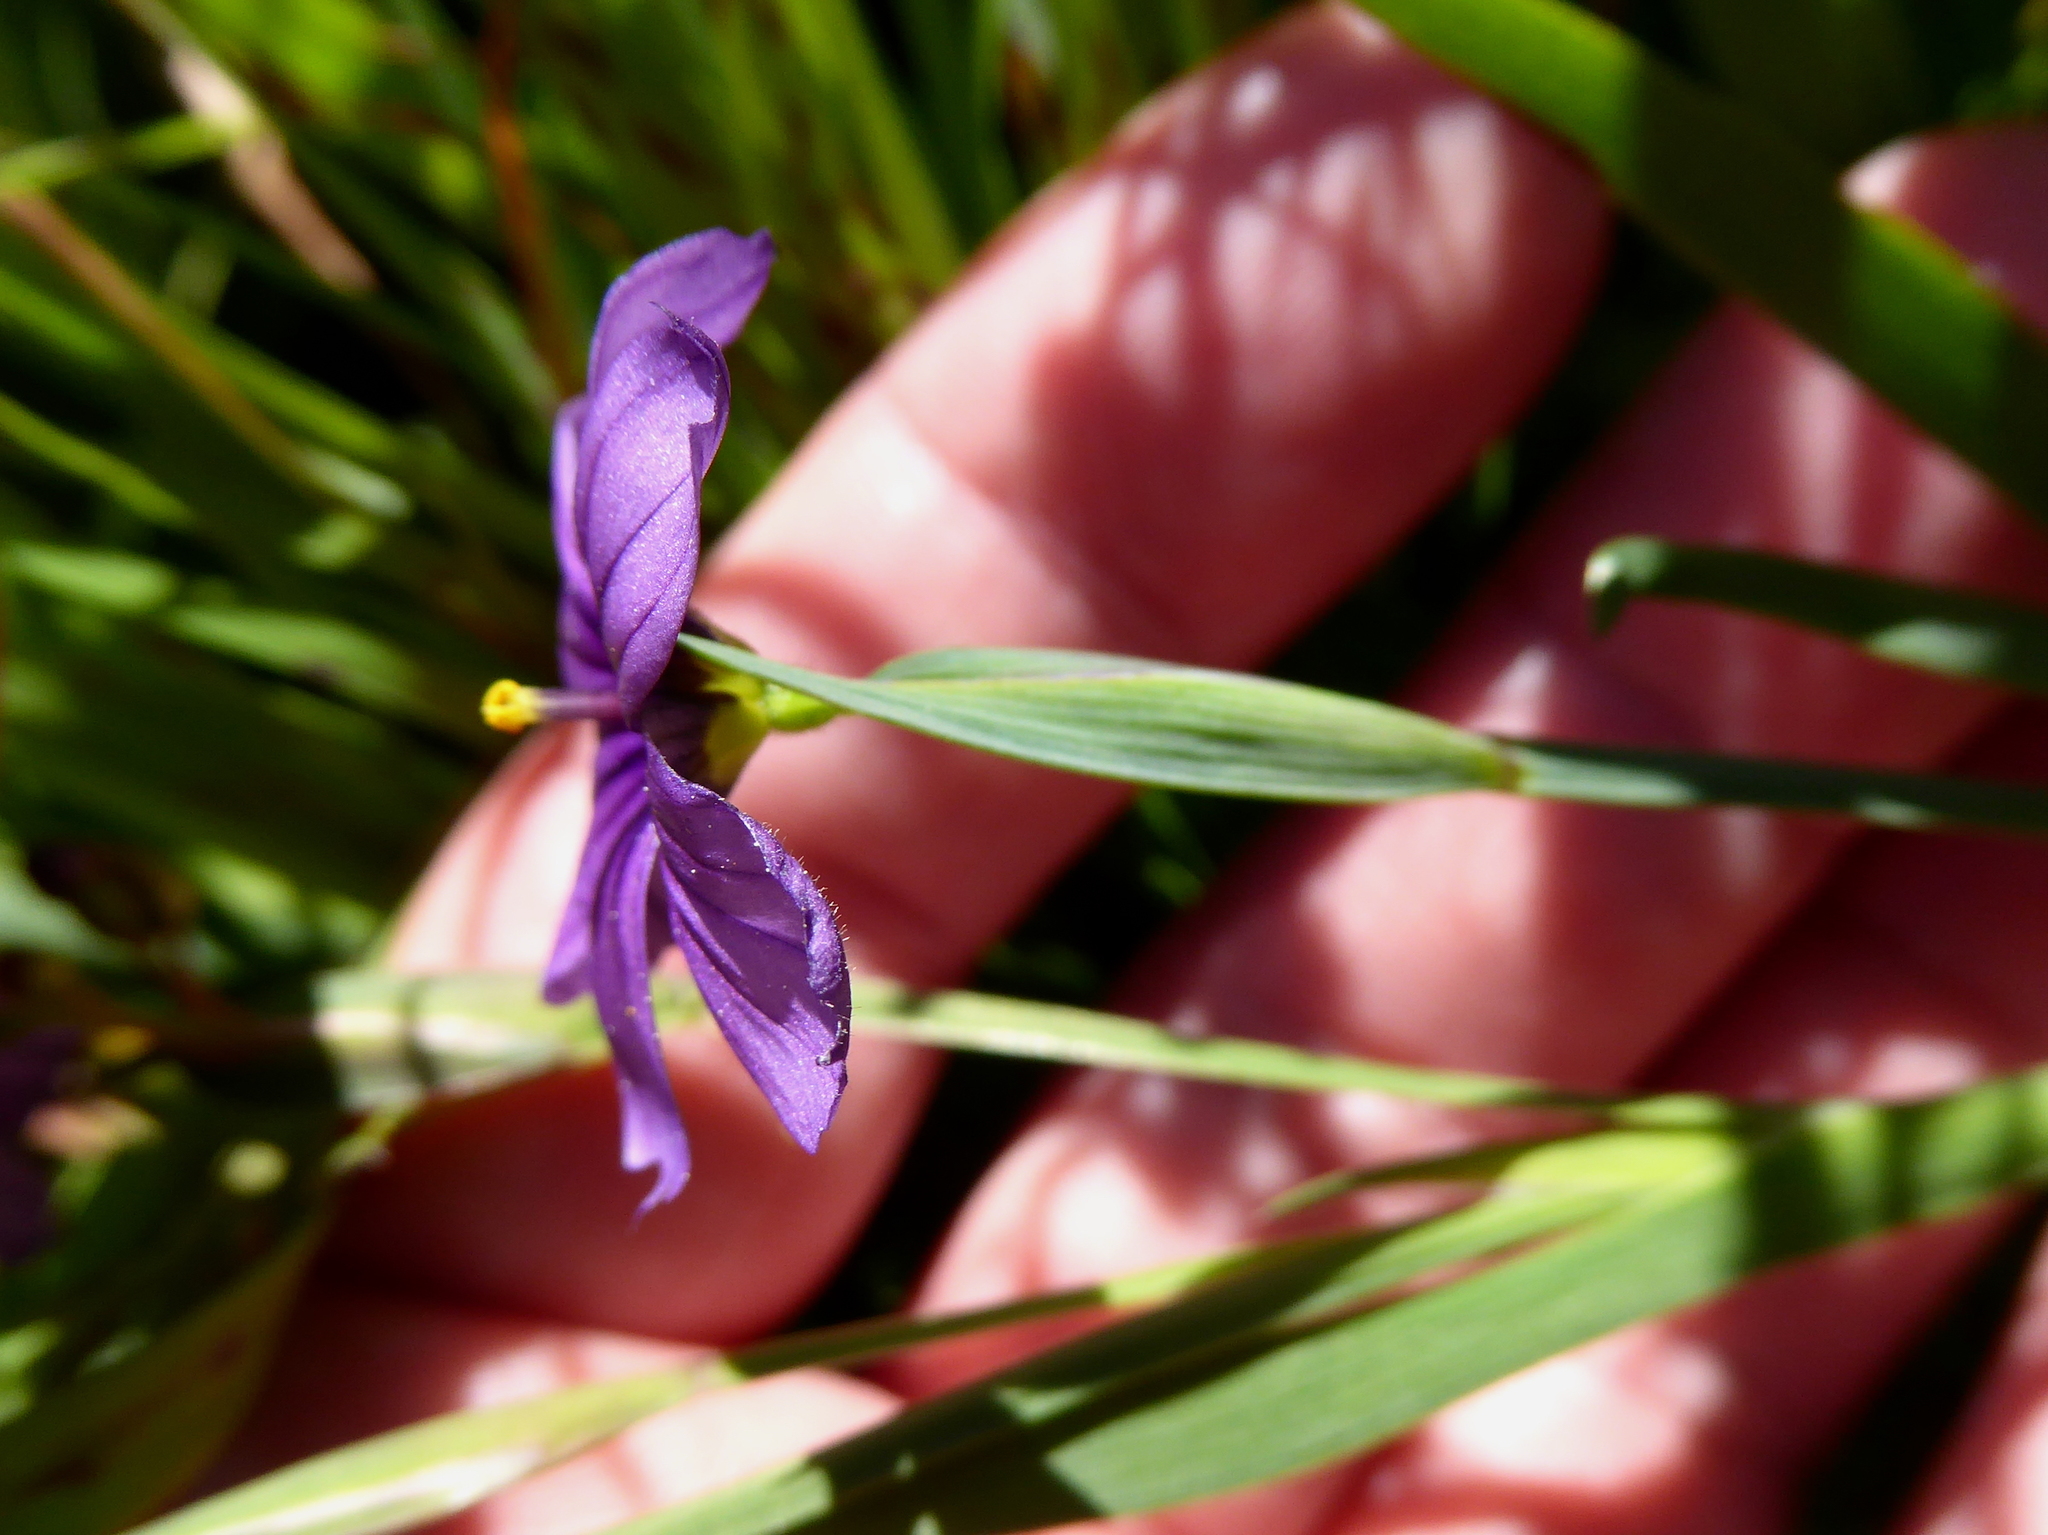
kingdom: Plantae
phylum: Tracheophyta
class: Liliopsida
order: Asparagales
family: Iridaceae
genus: Sisyrinchium
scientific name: Sisyrinchium bellum
